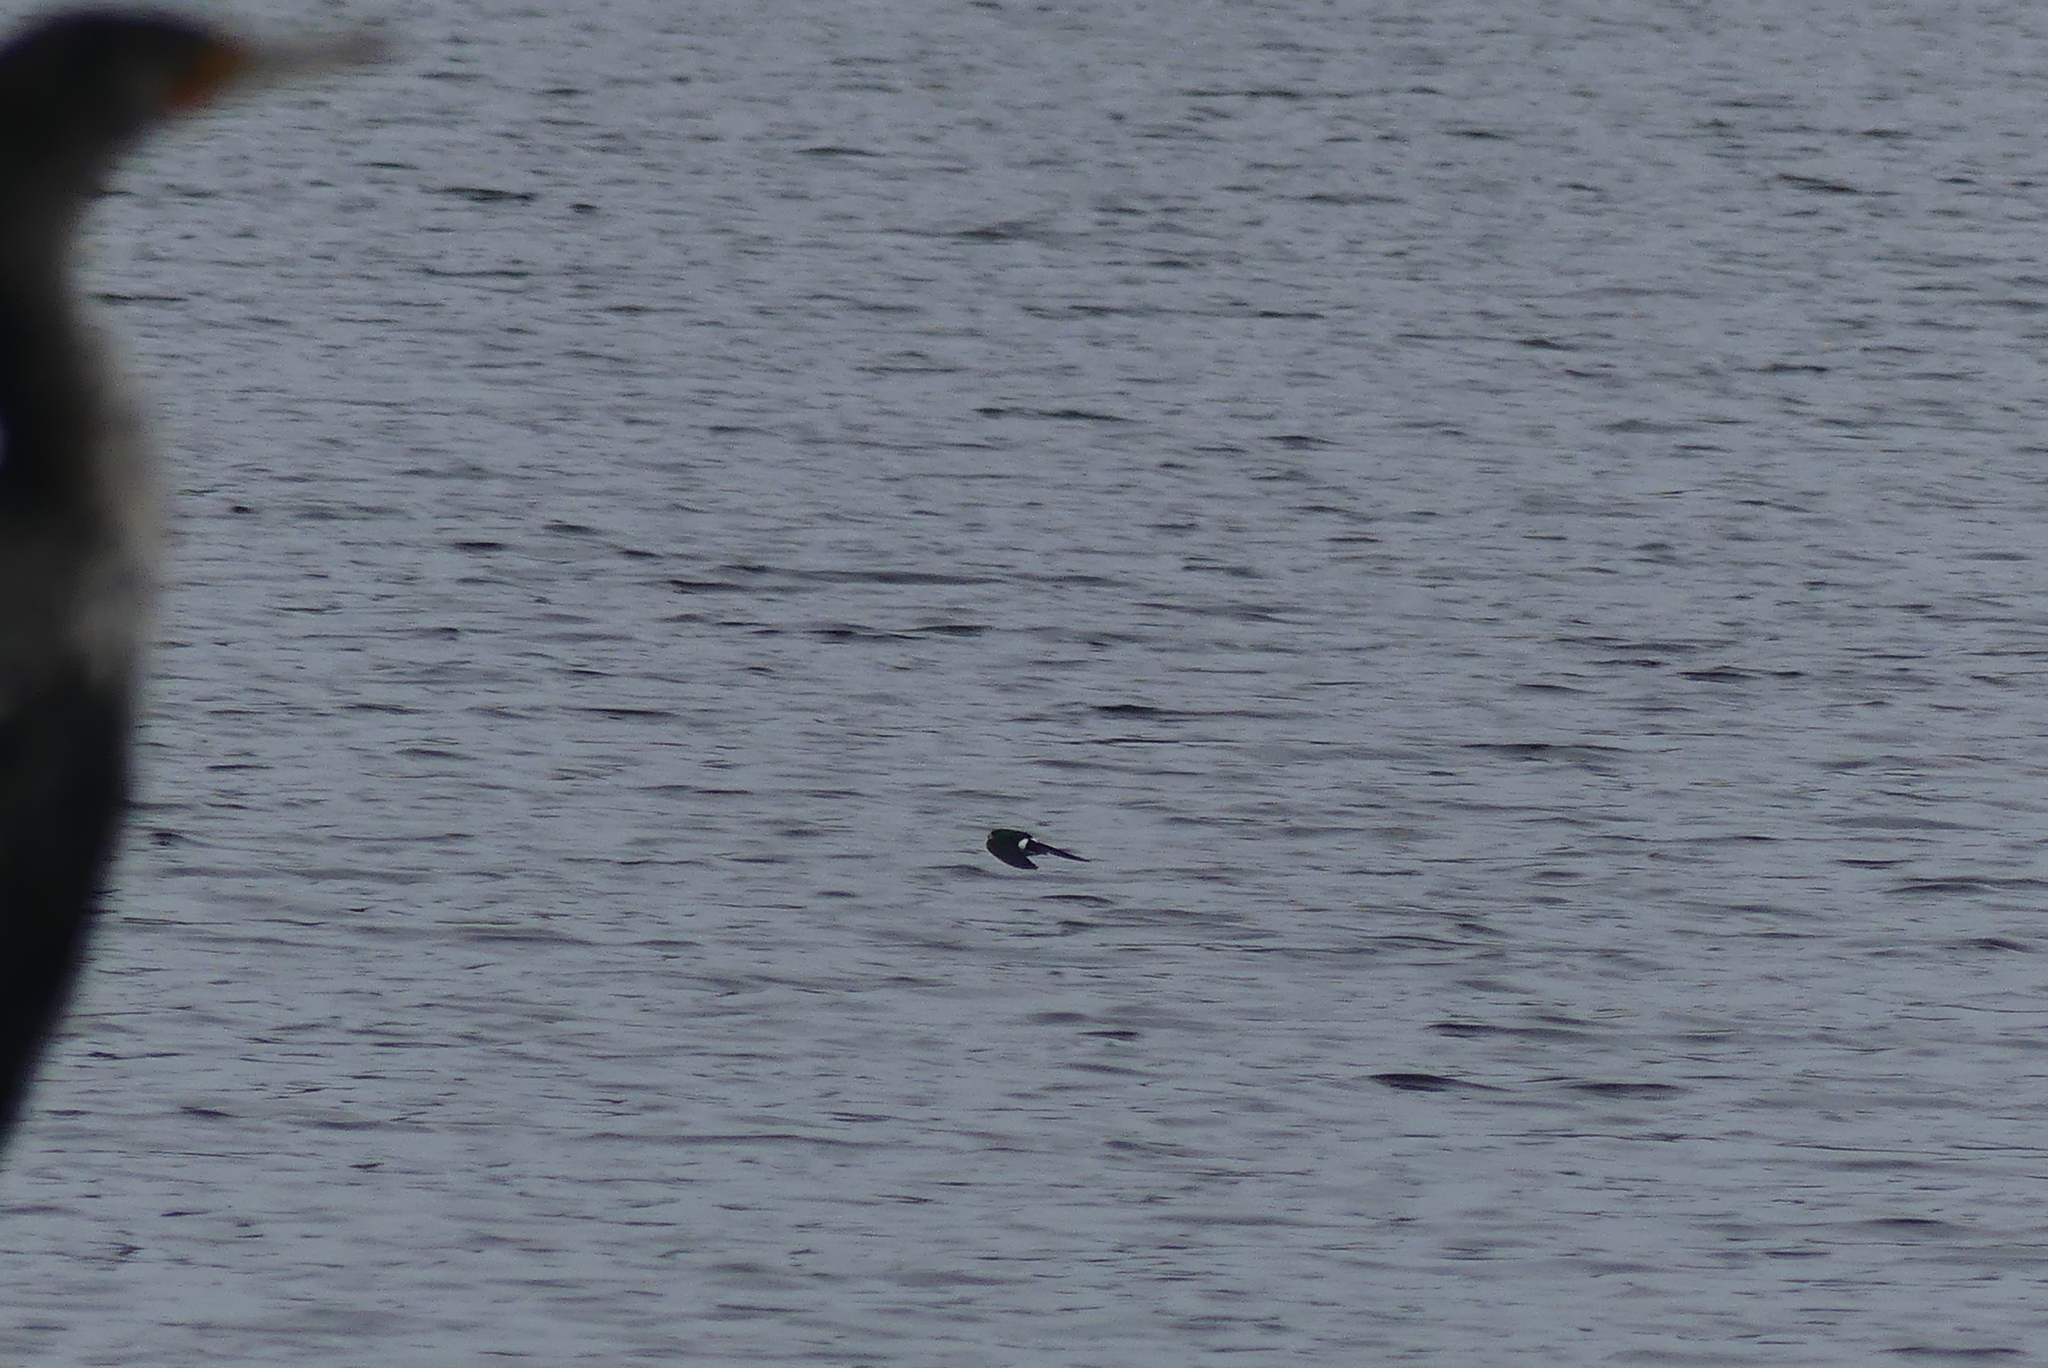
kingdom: Animalia
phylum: Chordata
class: Aves
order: Passeriformes
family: Hirundinidae
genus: Tachycineta
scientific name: Tachycineta thalassina
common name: Violet-green swallow
